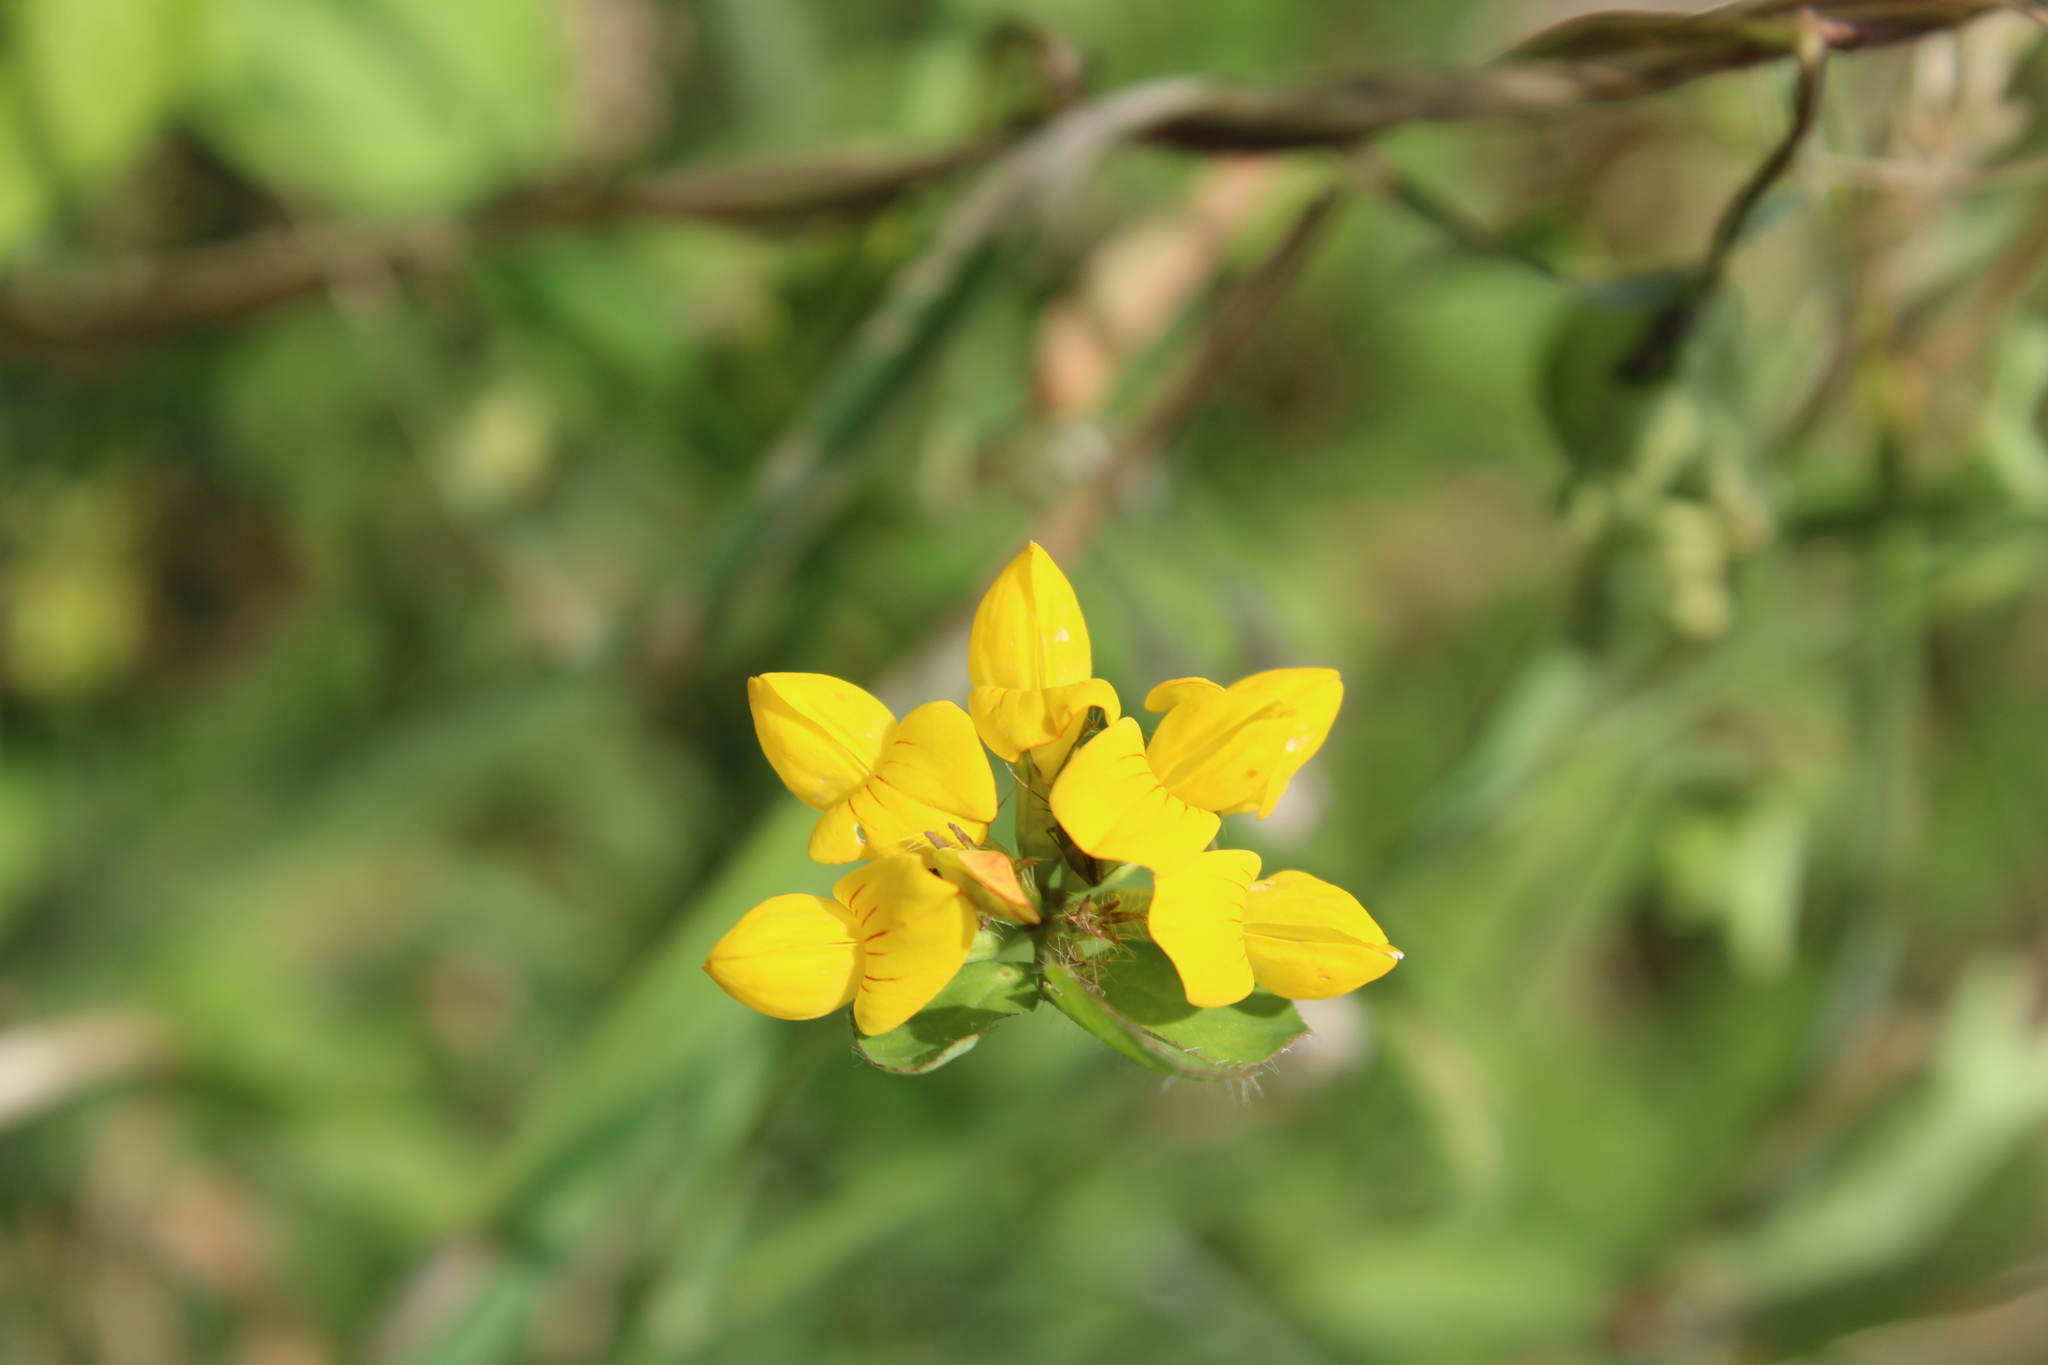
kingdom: Plantae
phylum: Tracheophyta
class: Magnoliopsida
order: Fabales
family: Fabaceae
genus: Lotus
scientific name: Lotus pedunculatus
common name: Greater birdsfoot-trefoil
